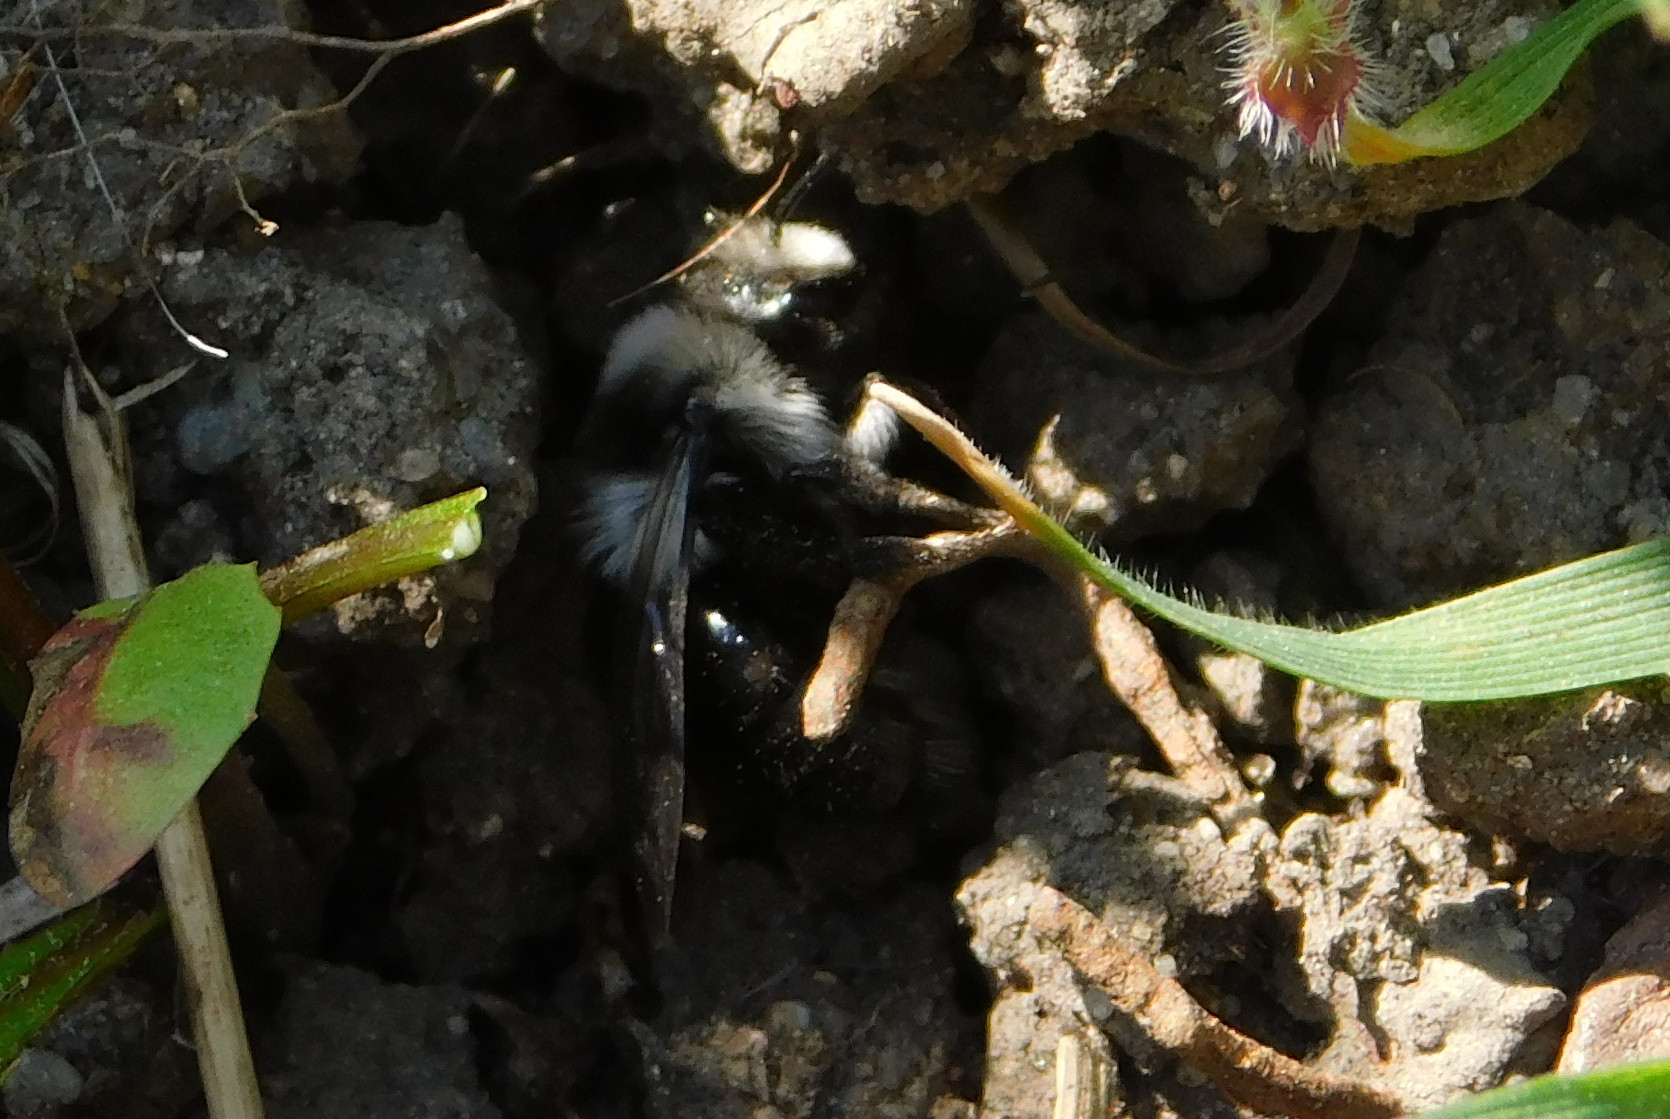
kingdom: Animalia
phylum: Arthropoda
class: Insecta
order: Hymenoptera
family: Andrenidae
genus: Andrena
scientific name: Andrena cineraria
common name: Ashy mining bee
